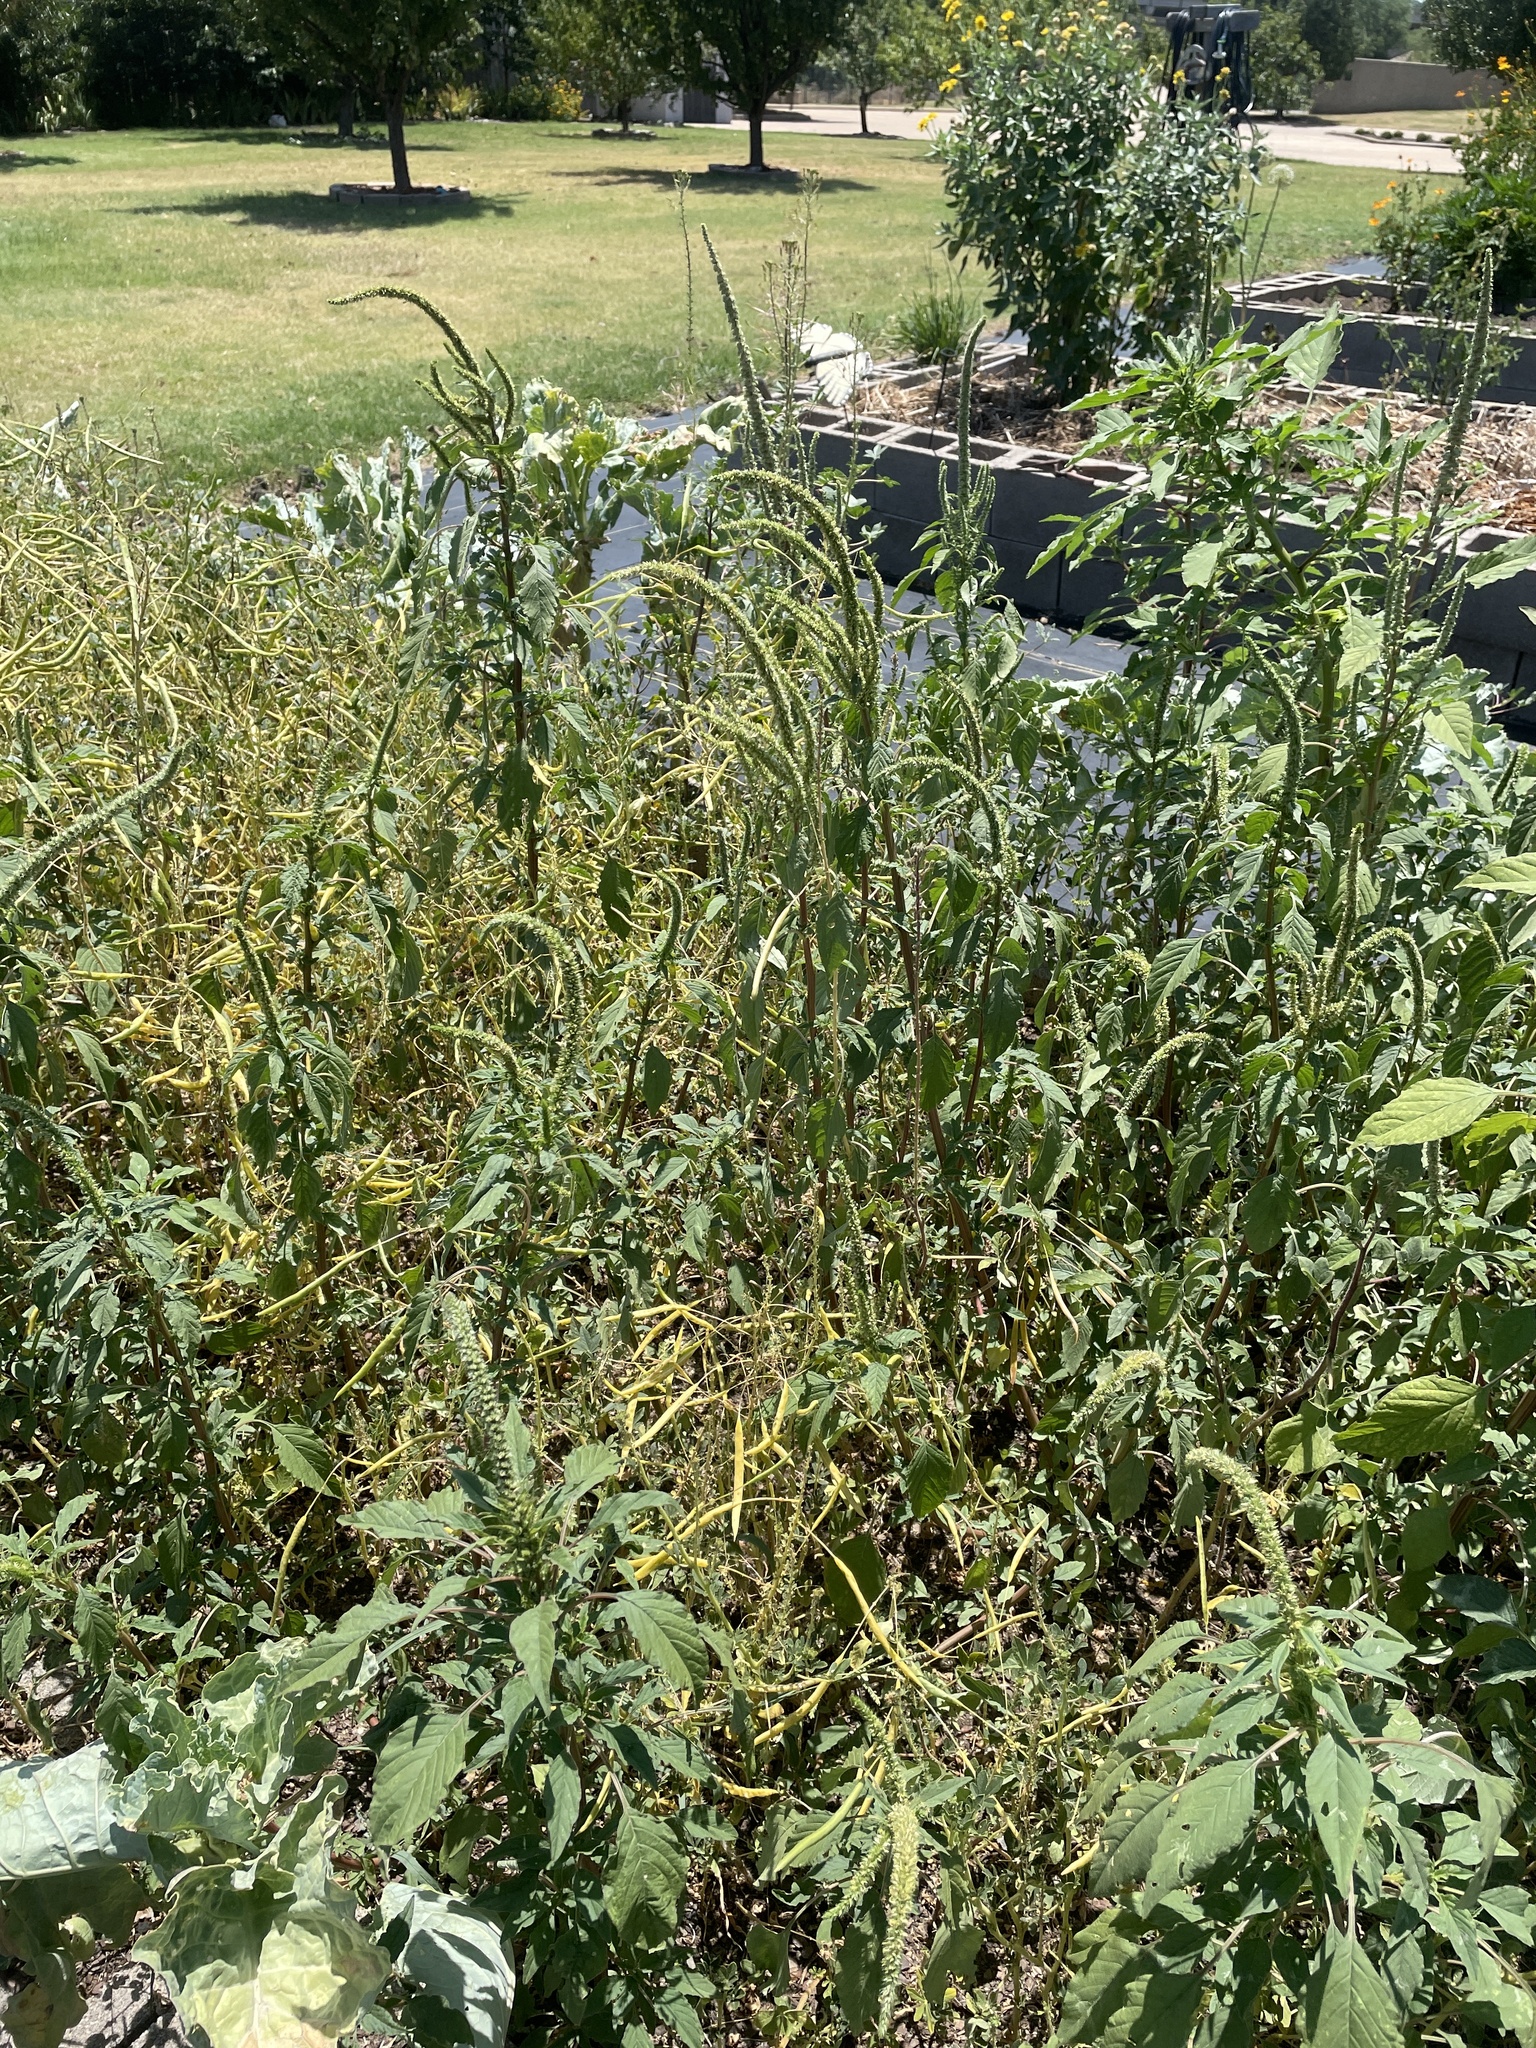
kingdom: Plantae
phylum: Tracheophyta
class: Magnoliopsida
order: Caryophyllales
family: Amaranthaceae
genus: Amaranthus
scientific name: Amaranthus palmeri
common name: Dioecious amaranth
